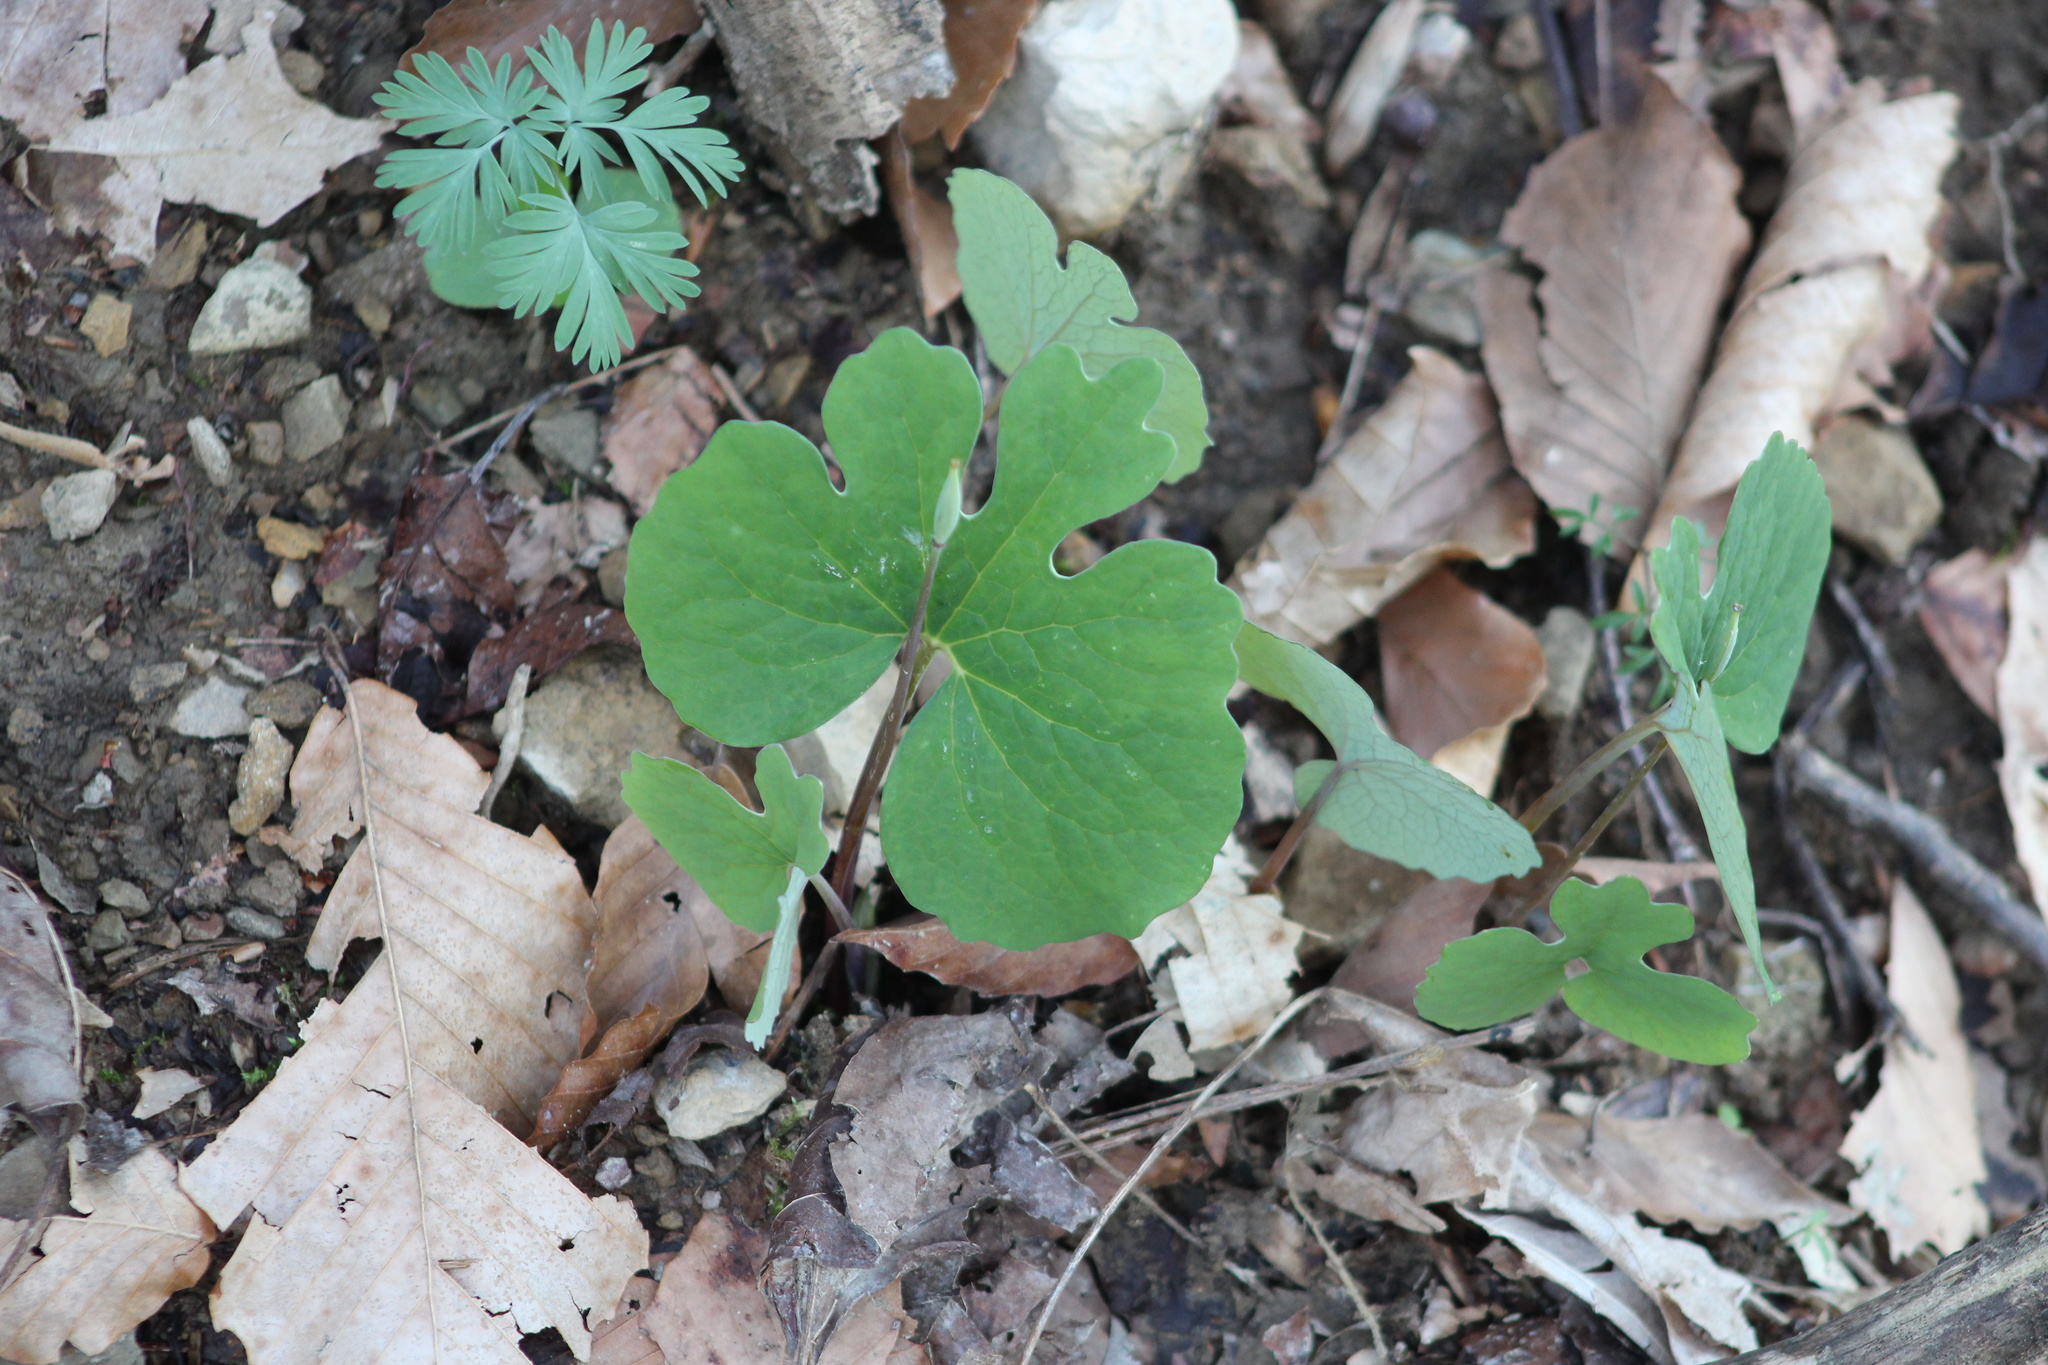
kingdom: Plantae
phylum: Tracheophyta
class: Magnoliopsida
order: Ranunculales
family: Papaveraceae
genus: Sanguinaria
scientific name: Sanguinaria canadensis
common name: Bloodroot
